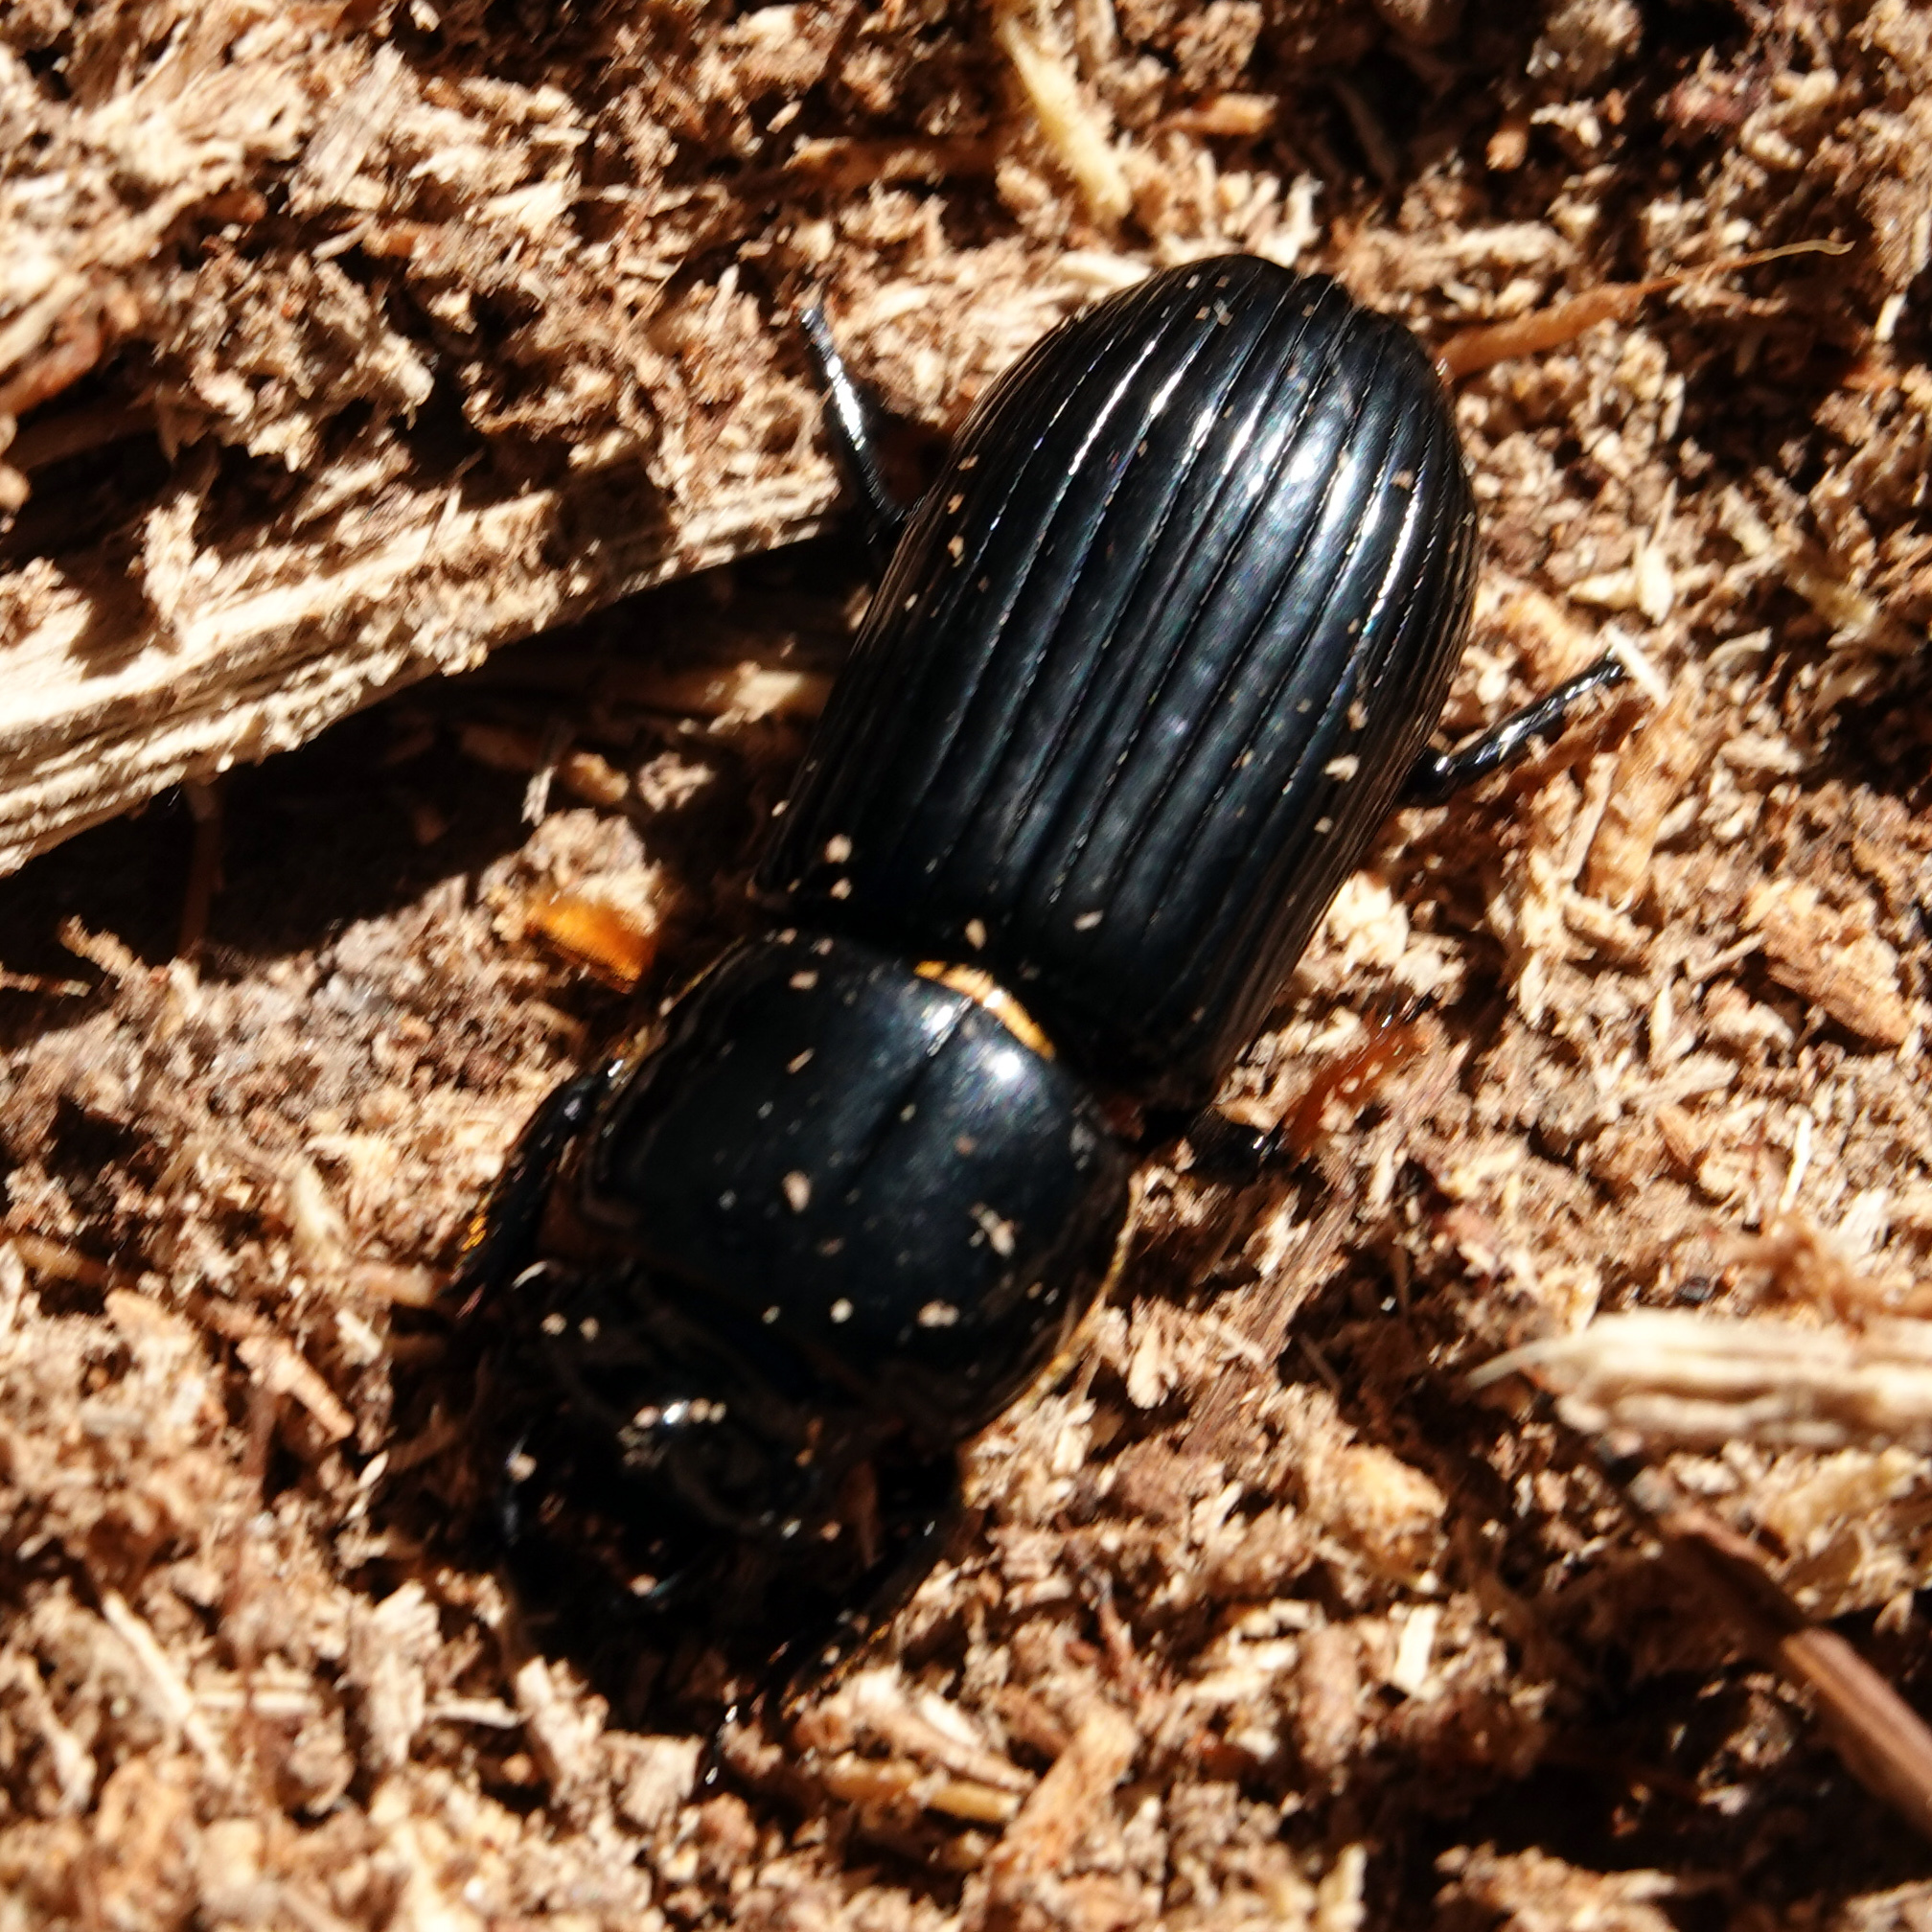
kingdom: Animalia
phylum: Arthropoda
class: Insecta
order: Coleoptera
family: Passalidae
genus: Odontotaenius
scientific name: Odontotaenius disjunctus
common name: Patent leather beetle
